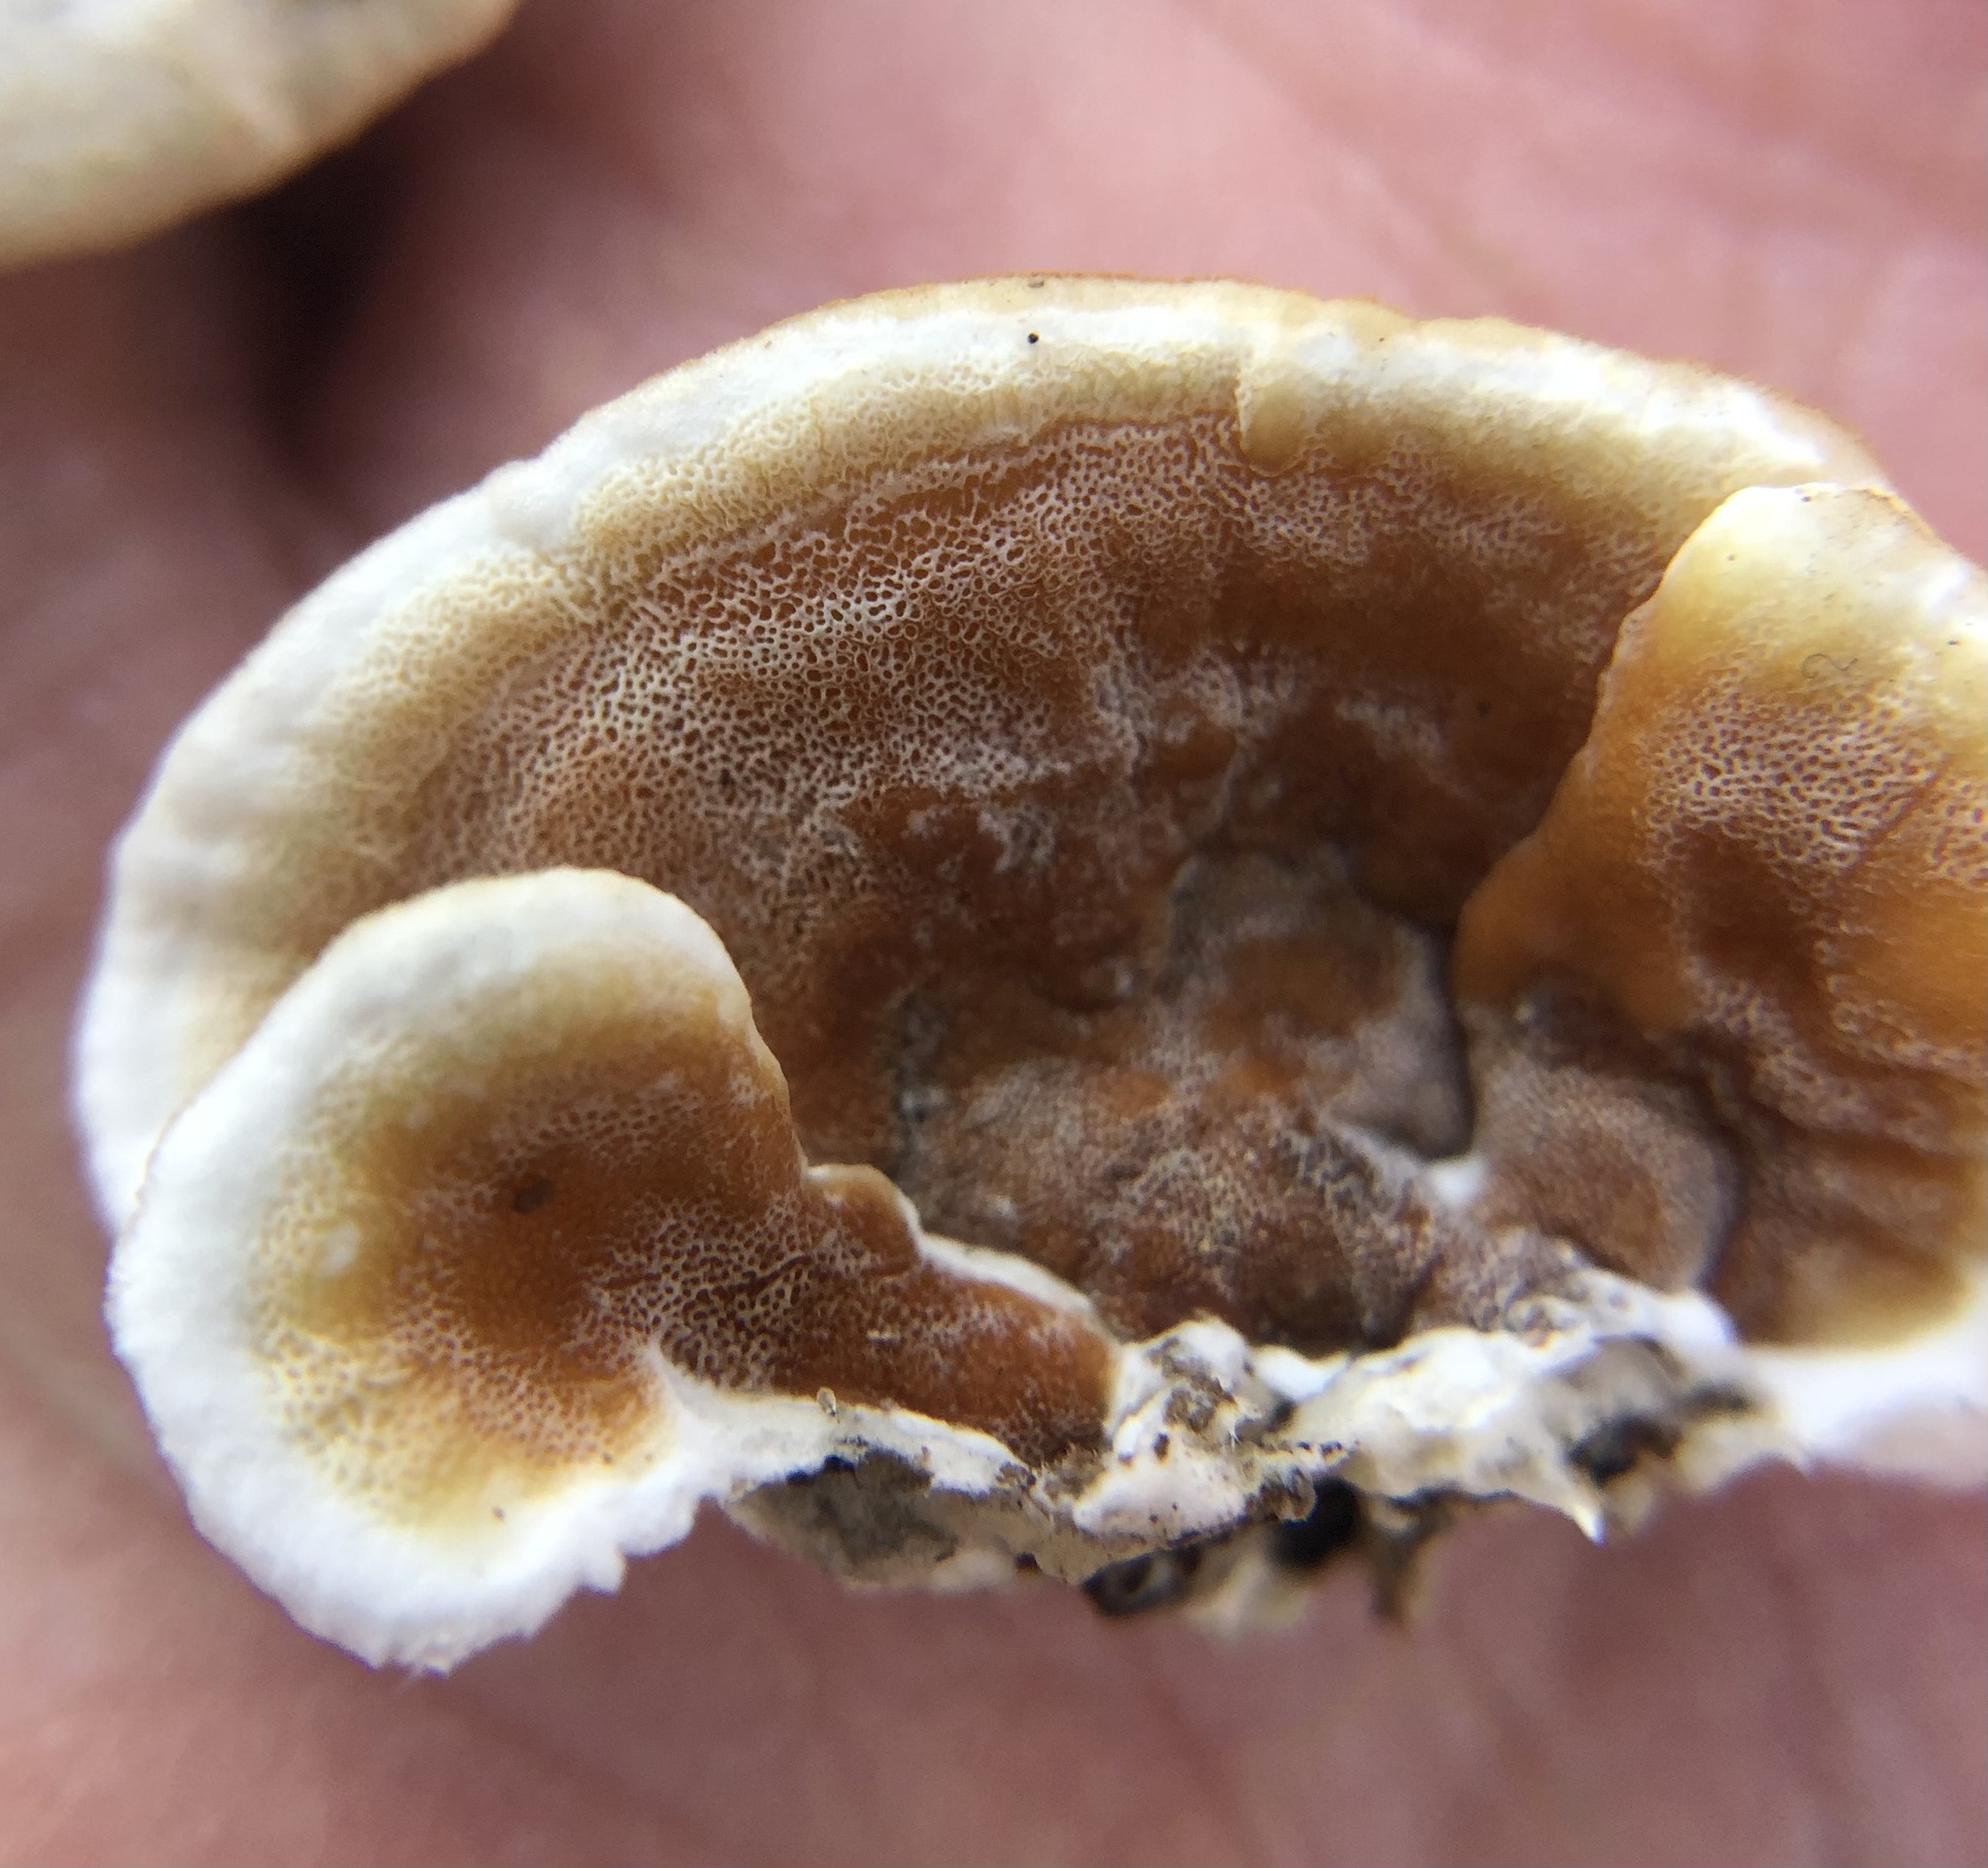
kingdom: Fungi
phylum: Basidiomycota
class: Agaricomycetes
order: Polyporales
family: Irpicaceae
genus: Vitreoporus
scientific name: Vitreoporus dichrous
